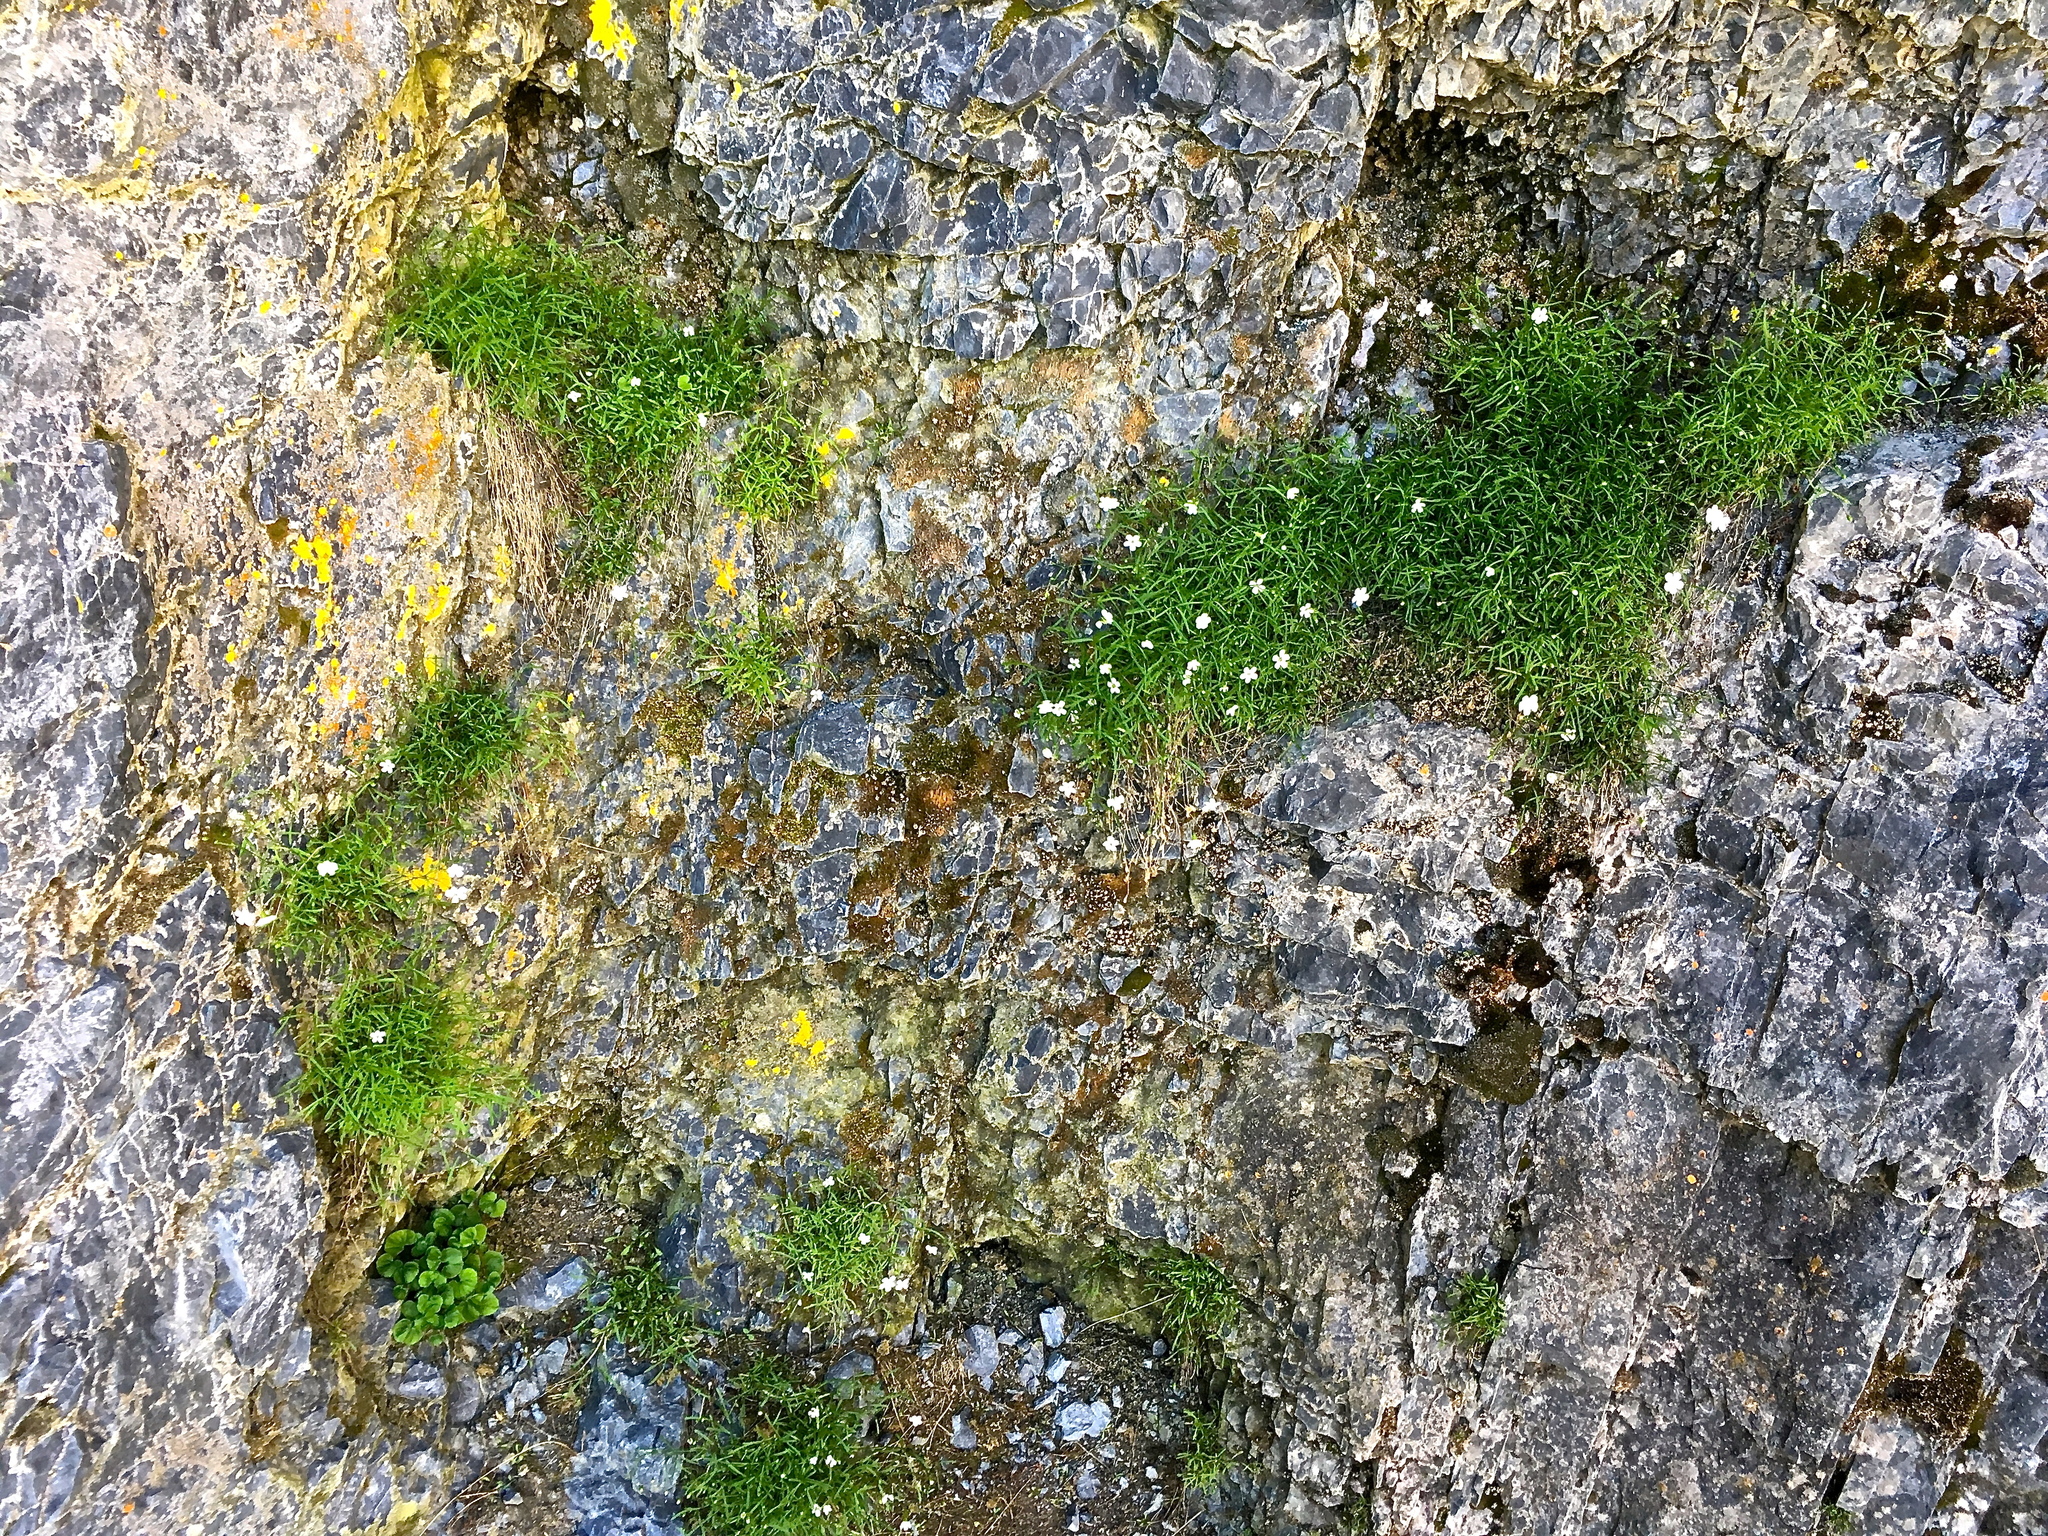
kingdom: Plantae
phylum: Tracheophyta
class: Magnoliopsida
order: Caryophyllales
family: Caryophyllaceae
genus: Heliosperma
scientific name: Heliosperma pusillum
